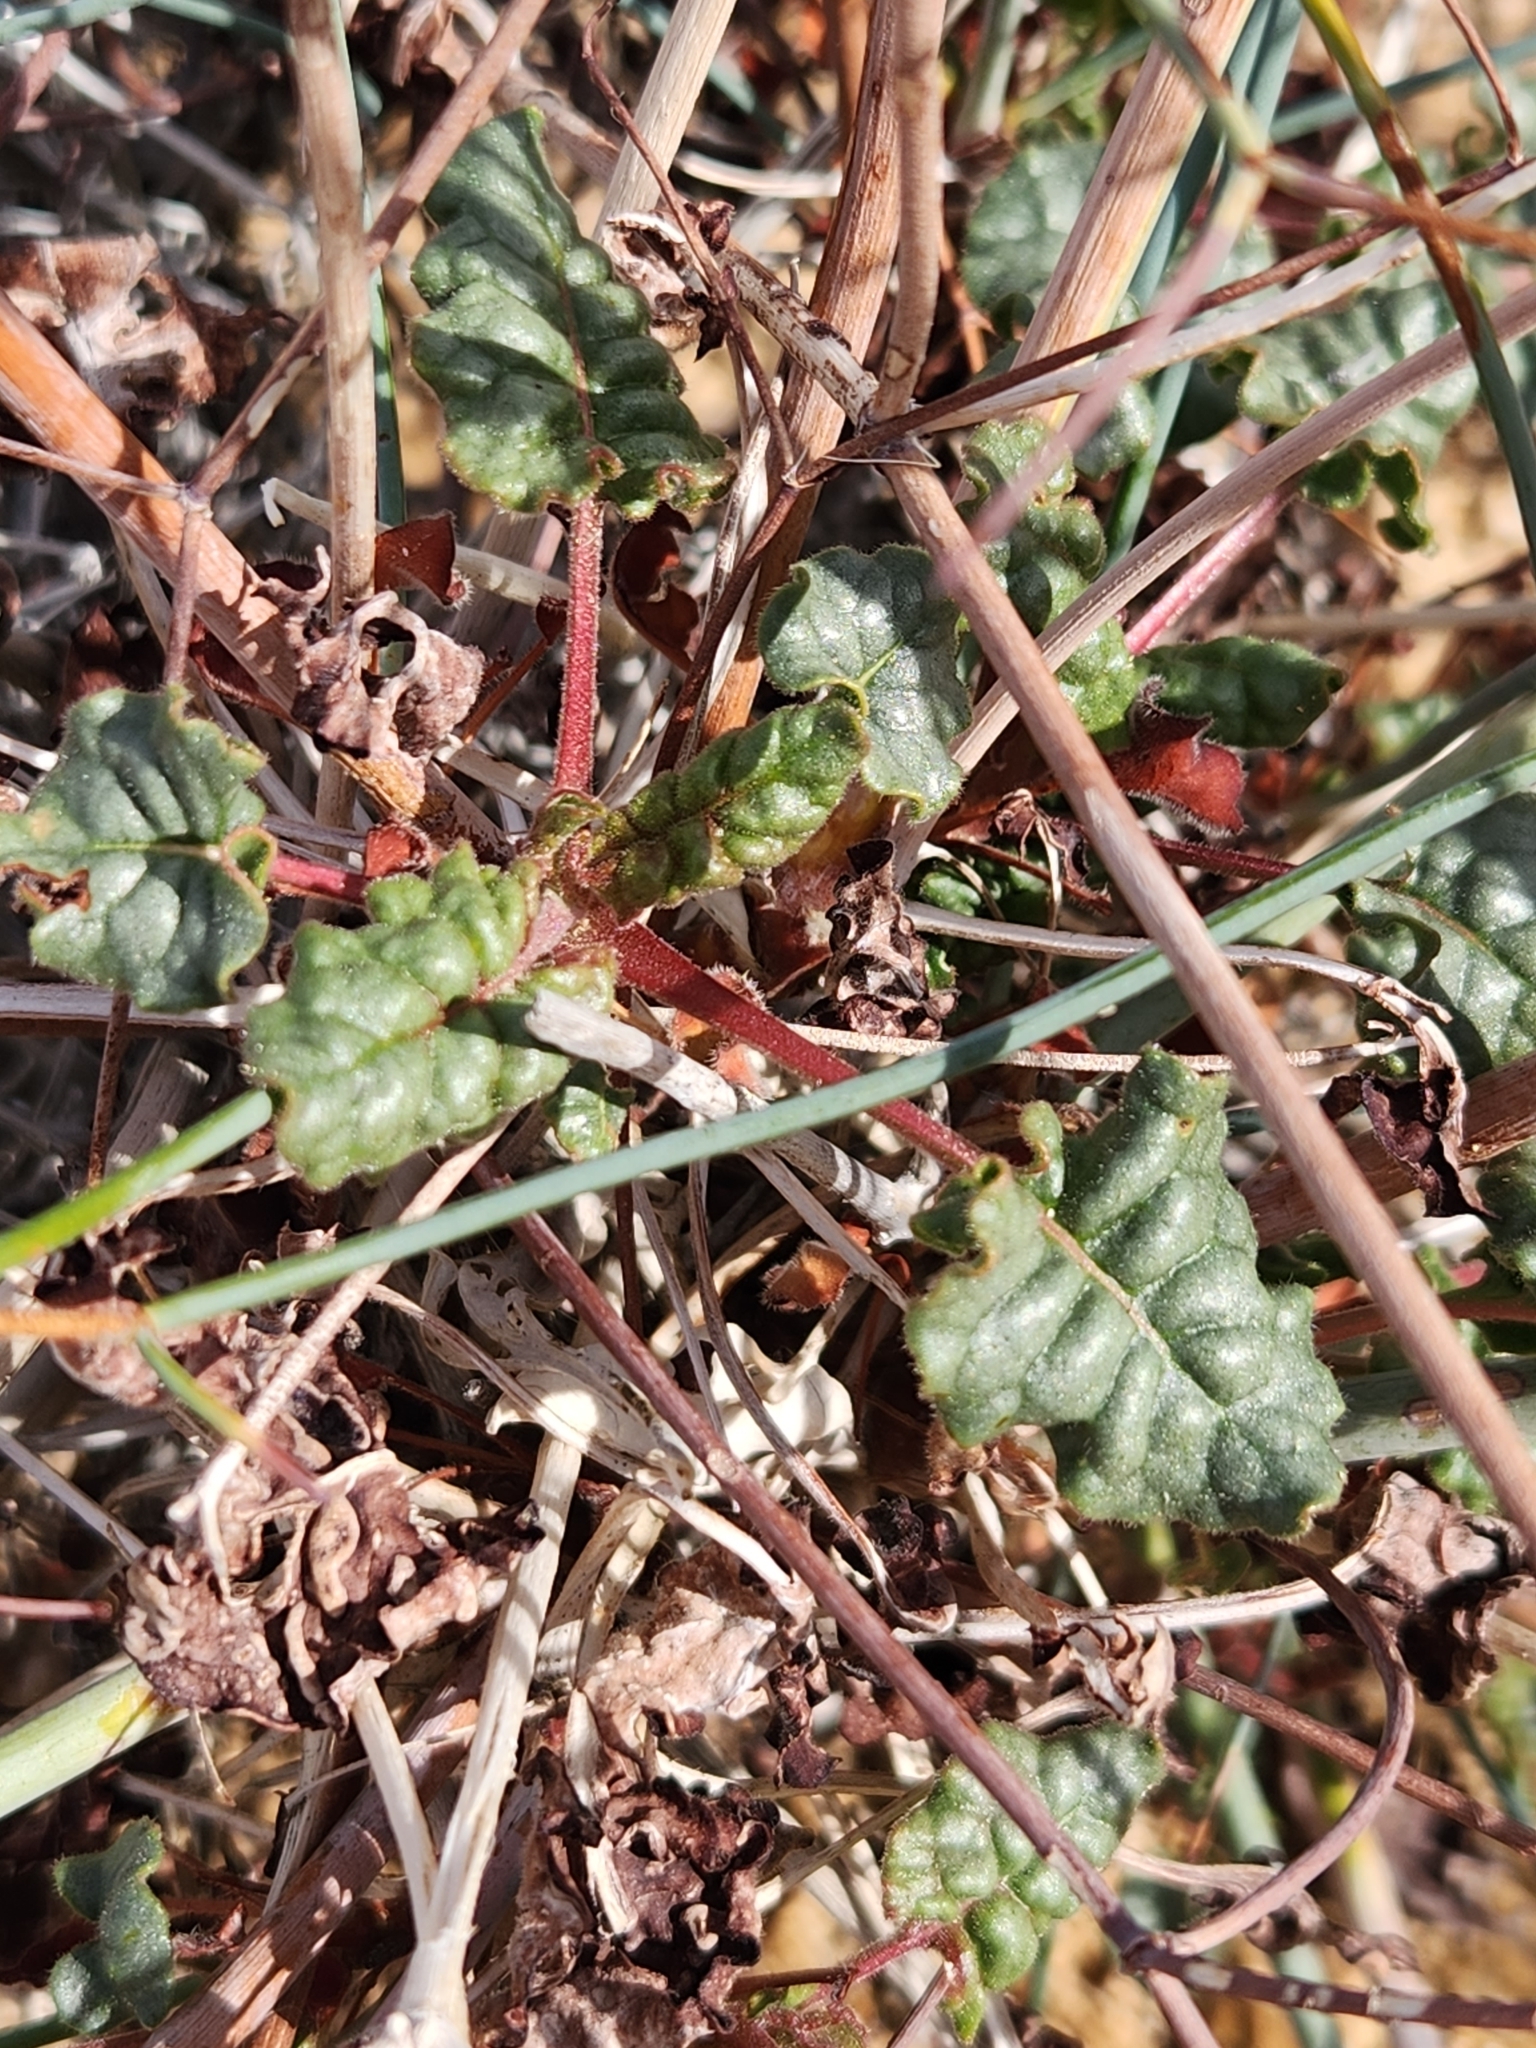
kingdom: Plantae
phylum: Tracheophyta
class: Magnoliopsida
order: Caryophyllales
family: Polygonaceae
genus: Eriogonum
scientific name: Eriogonum inflatum
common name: Desert trumpet
